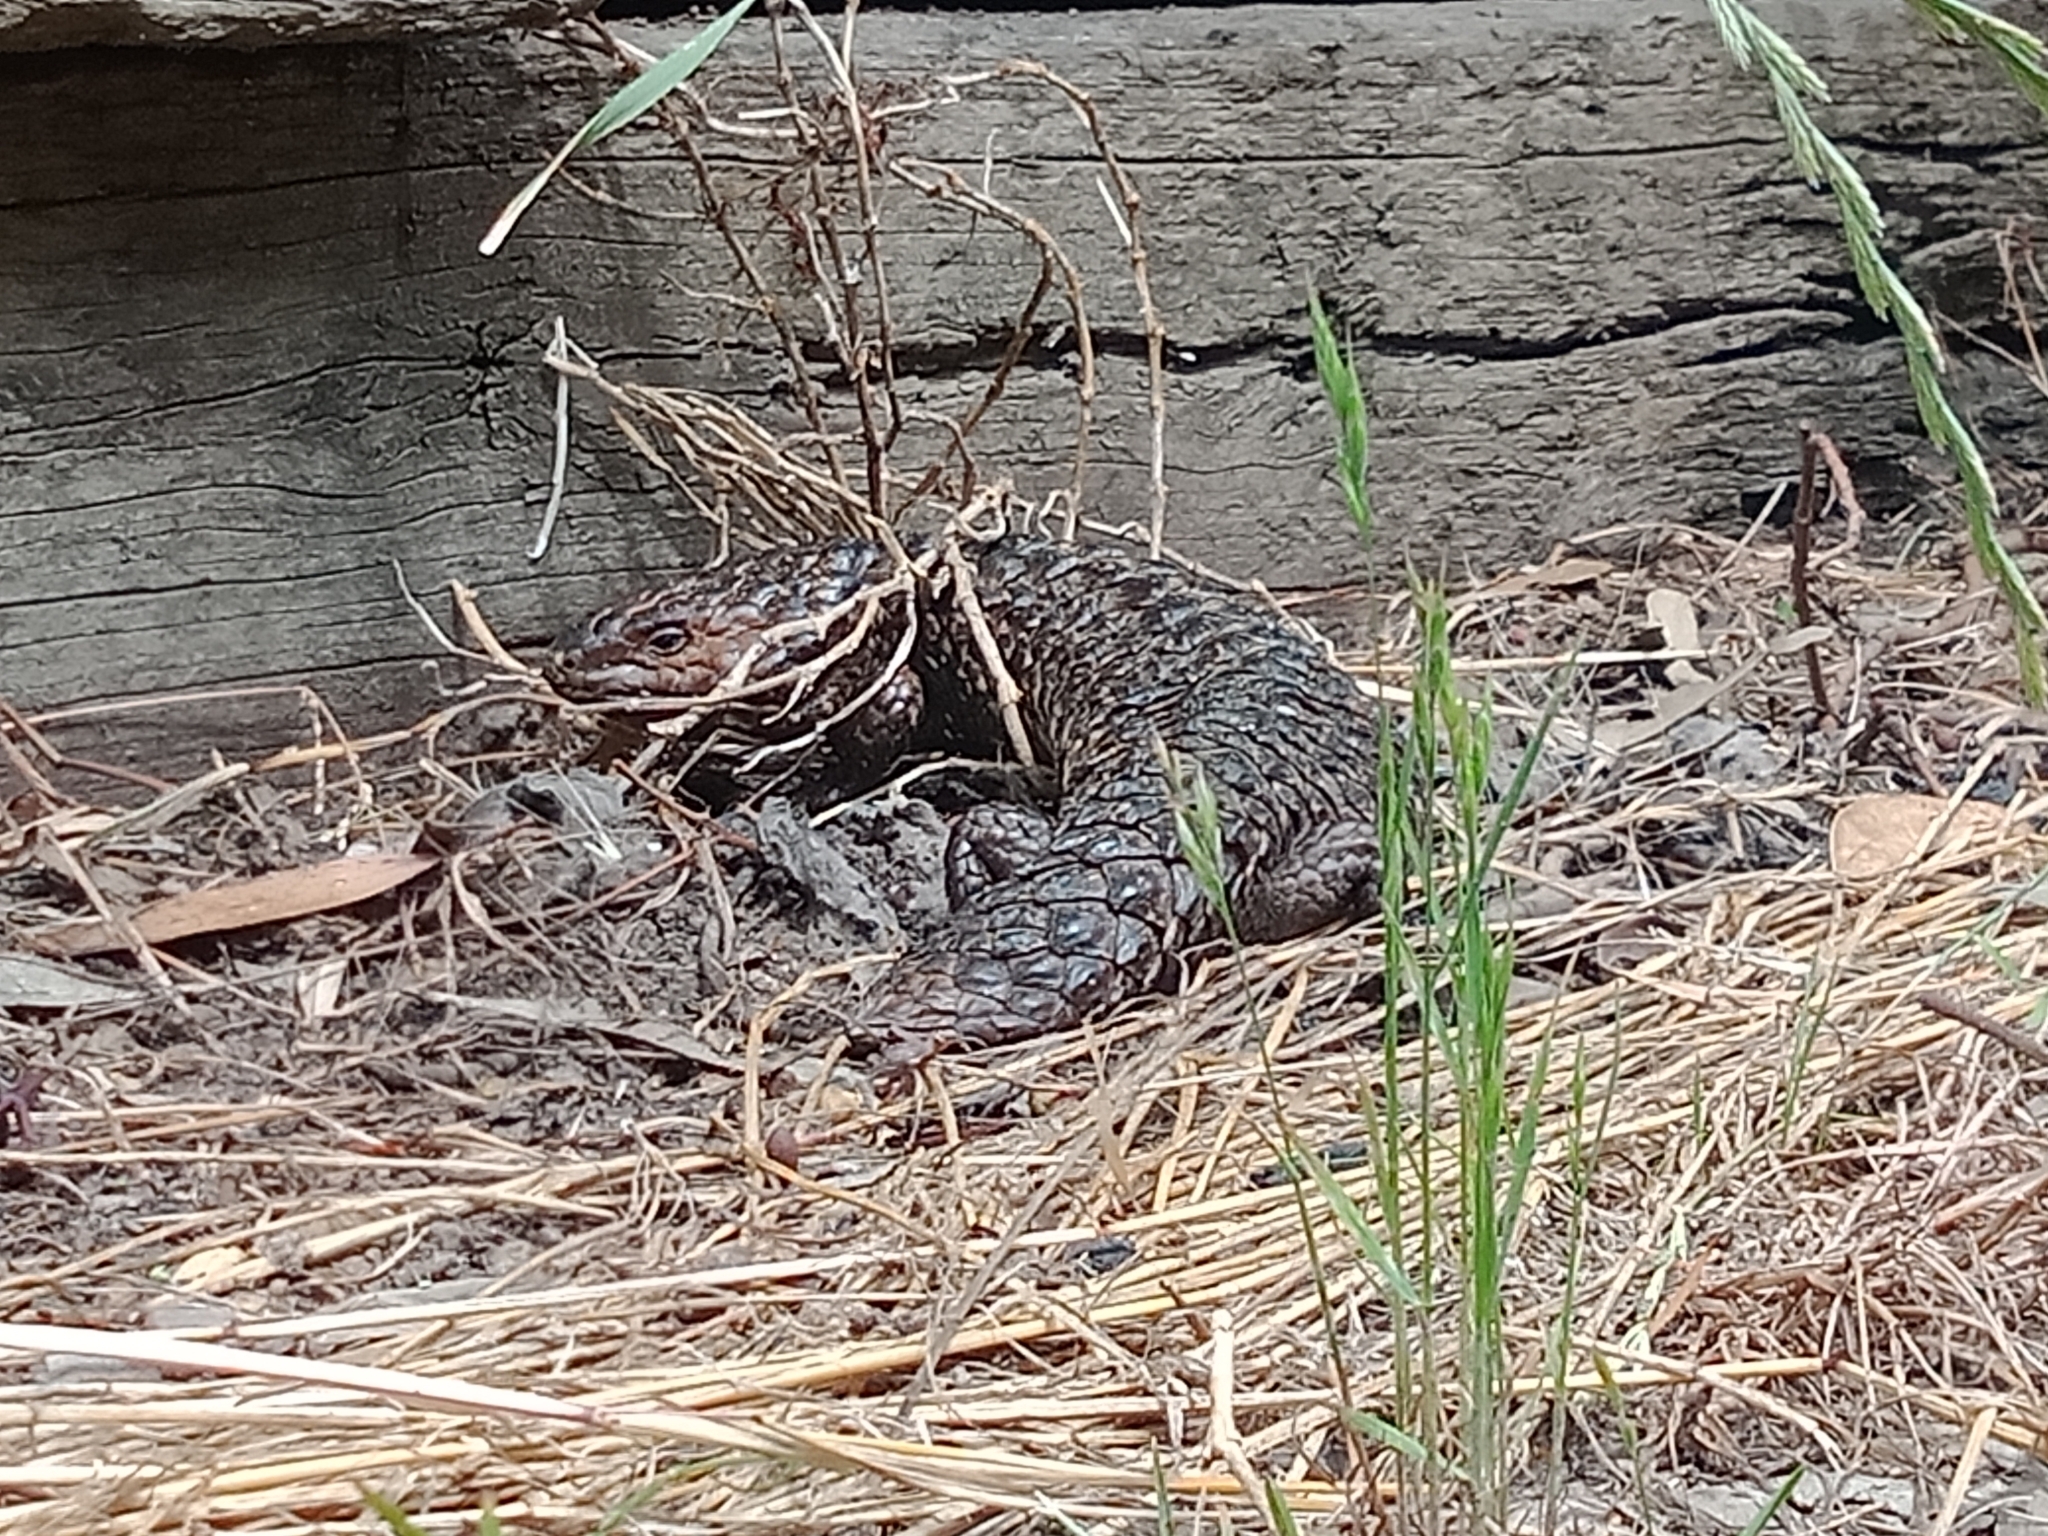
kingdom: Animalia
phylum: Chordata
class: Squamata
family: Scincidae
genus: Tiliqua
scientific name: Tiliqua rugosa
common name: Pinecone lizard
